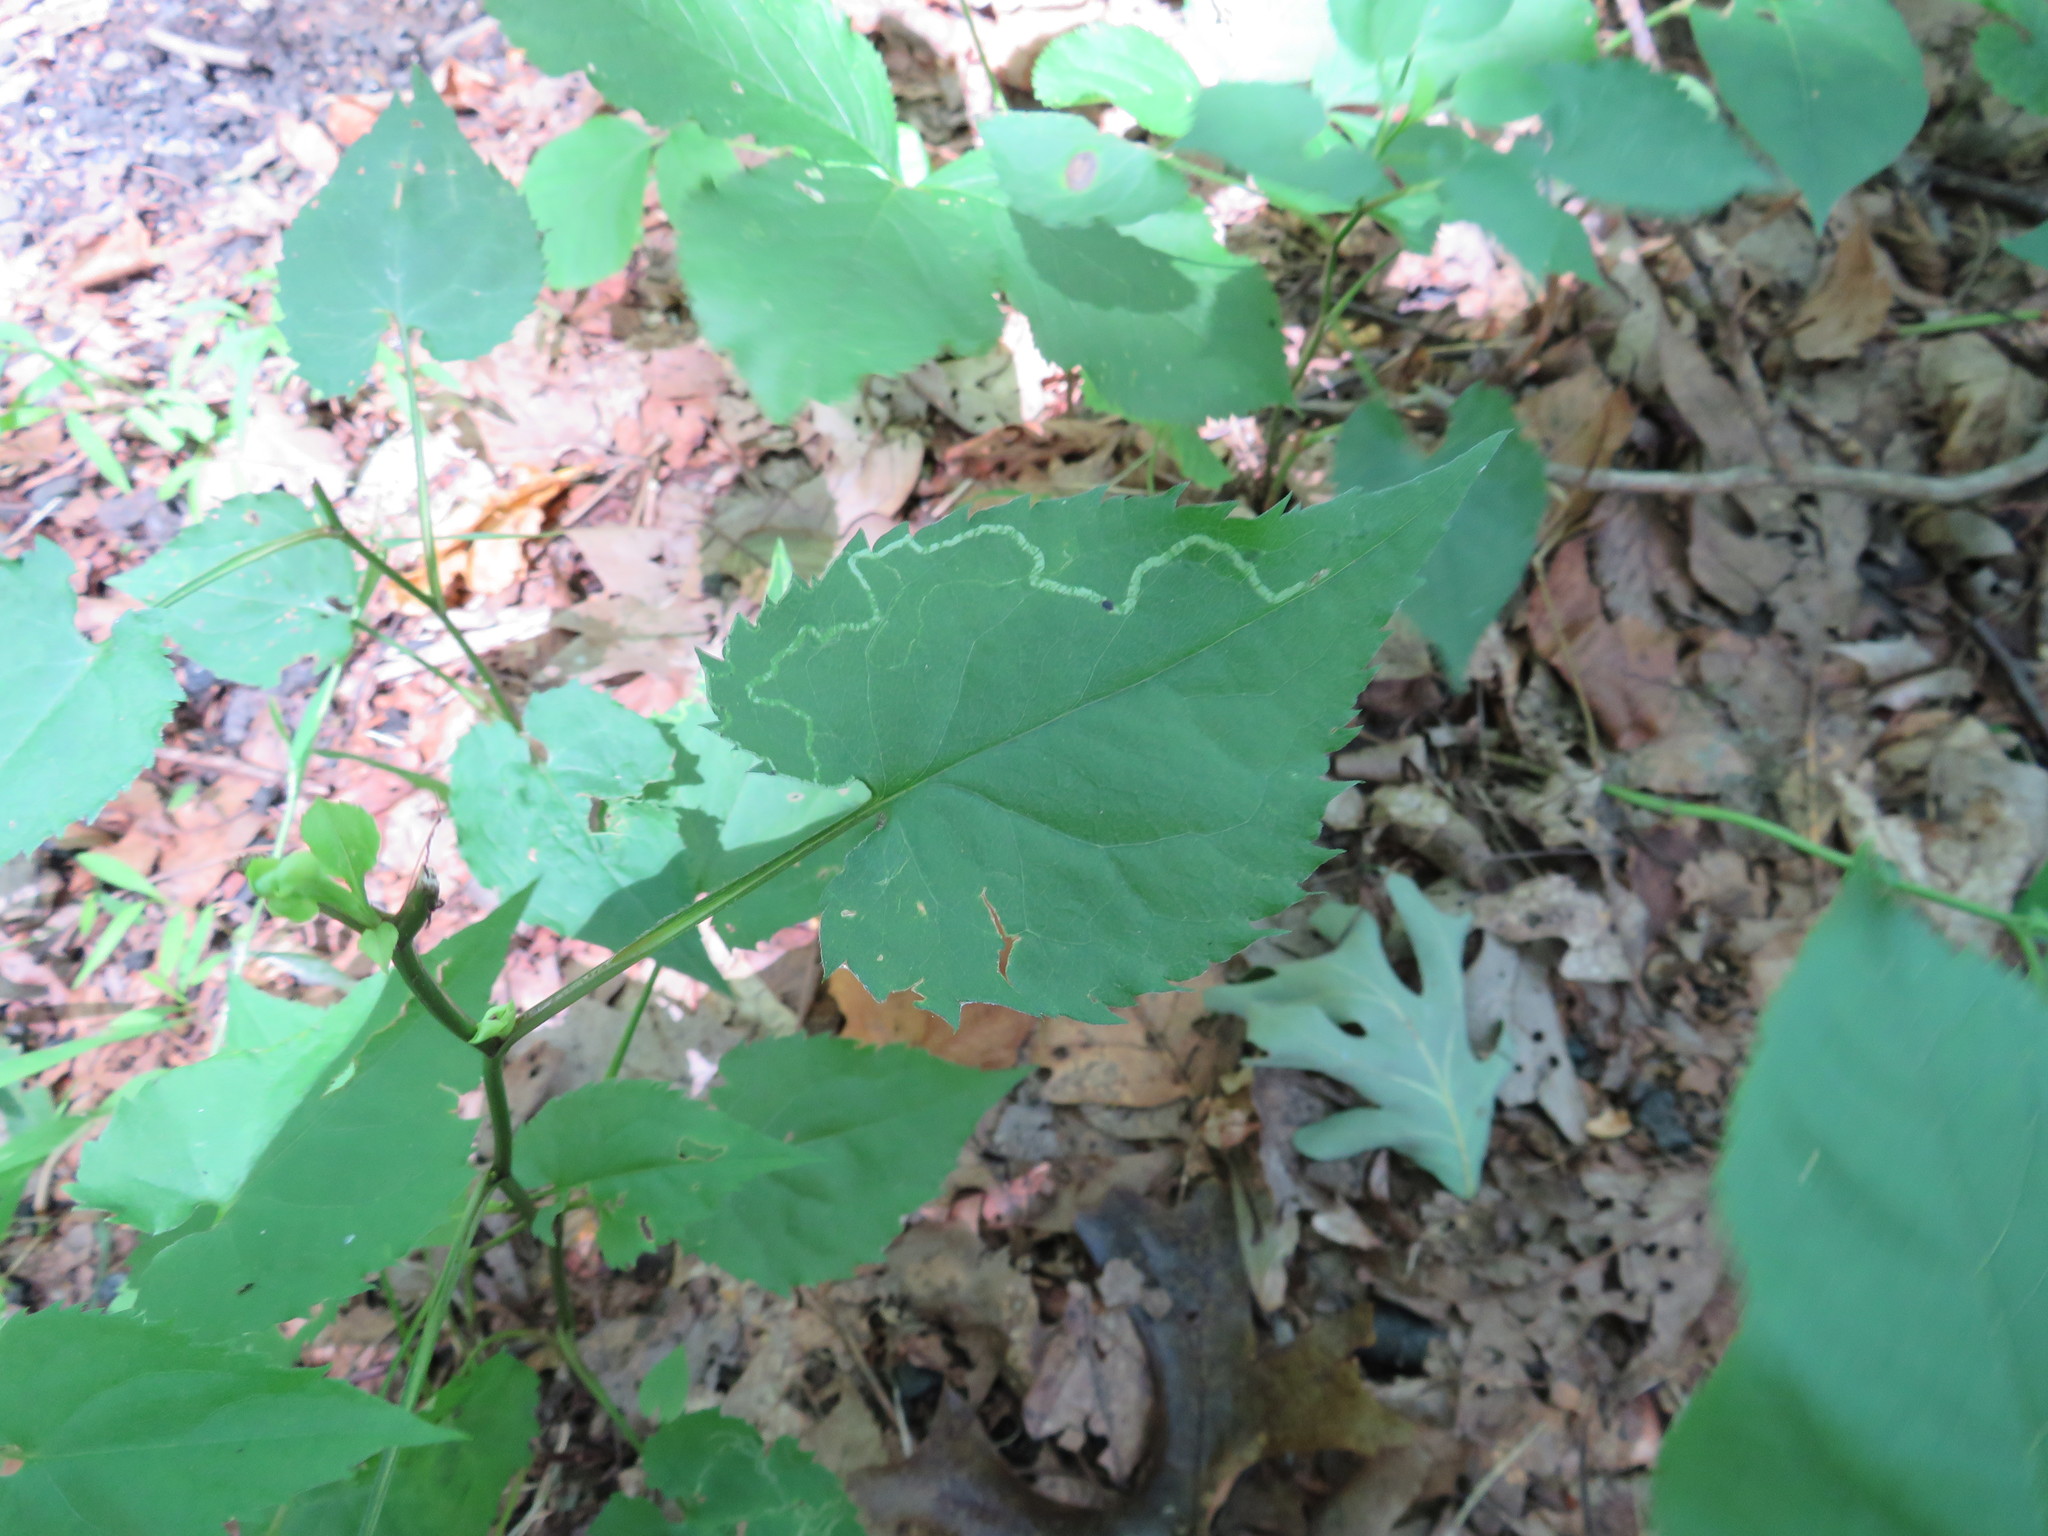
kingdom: Animalia
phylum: Arthropoda
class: Insecta
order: Diptera
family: Agromyzidae
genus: Ophiomyia
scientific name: Ophiomyia parda
